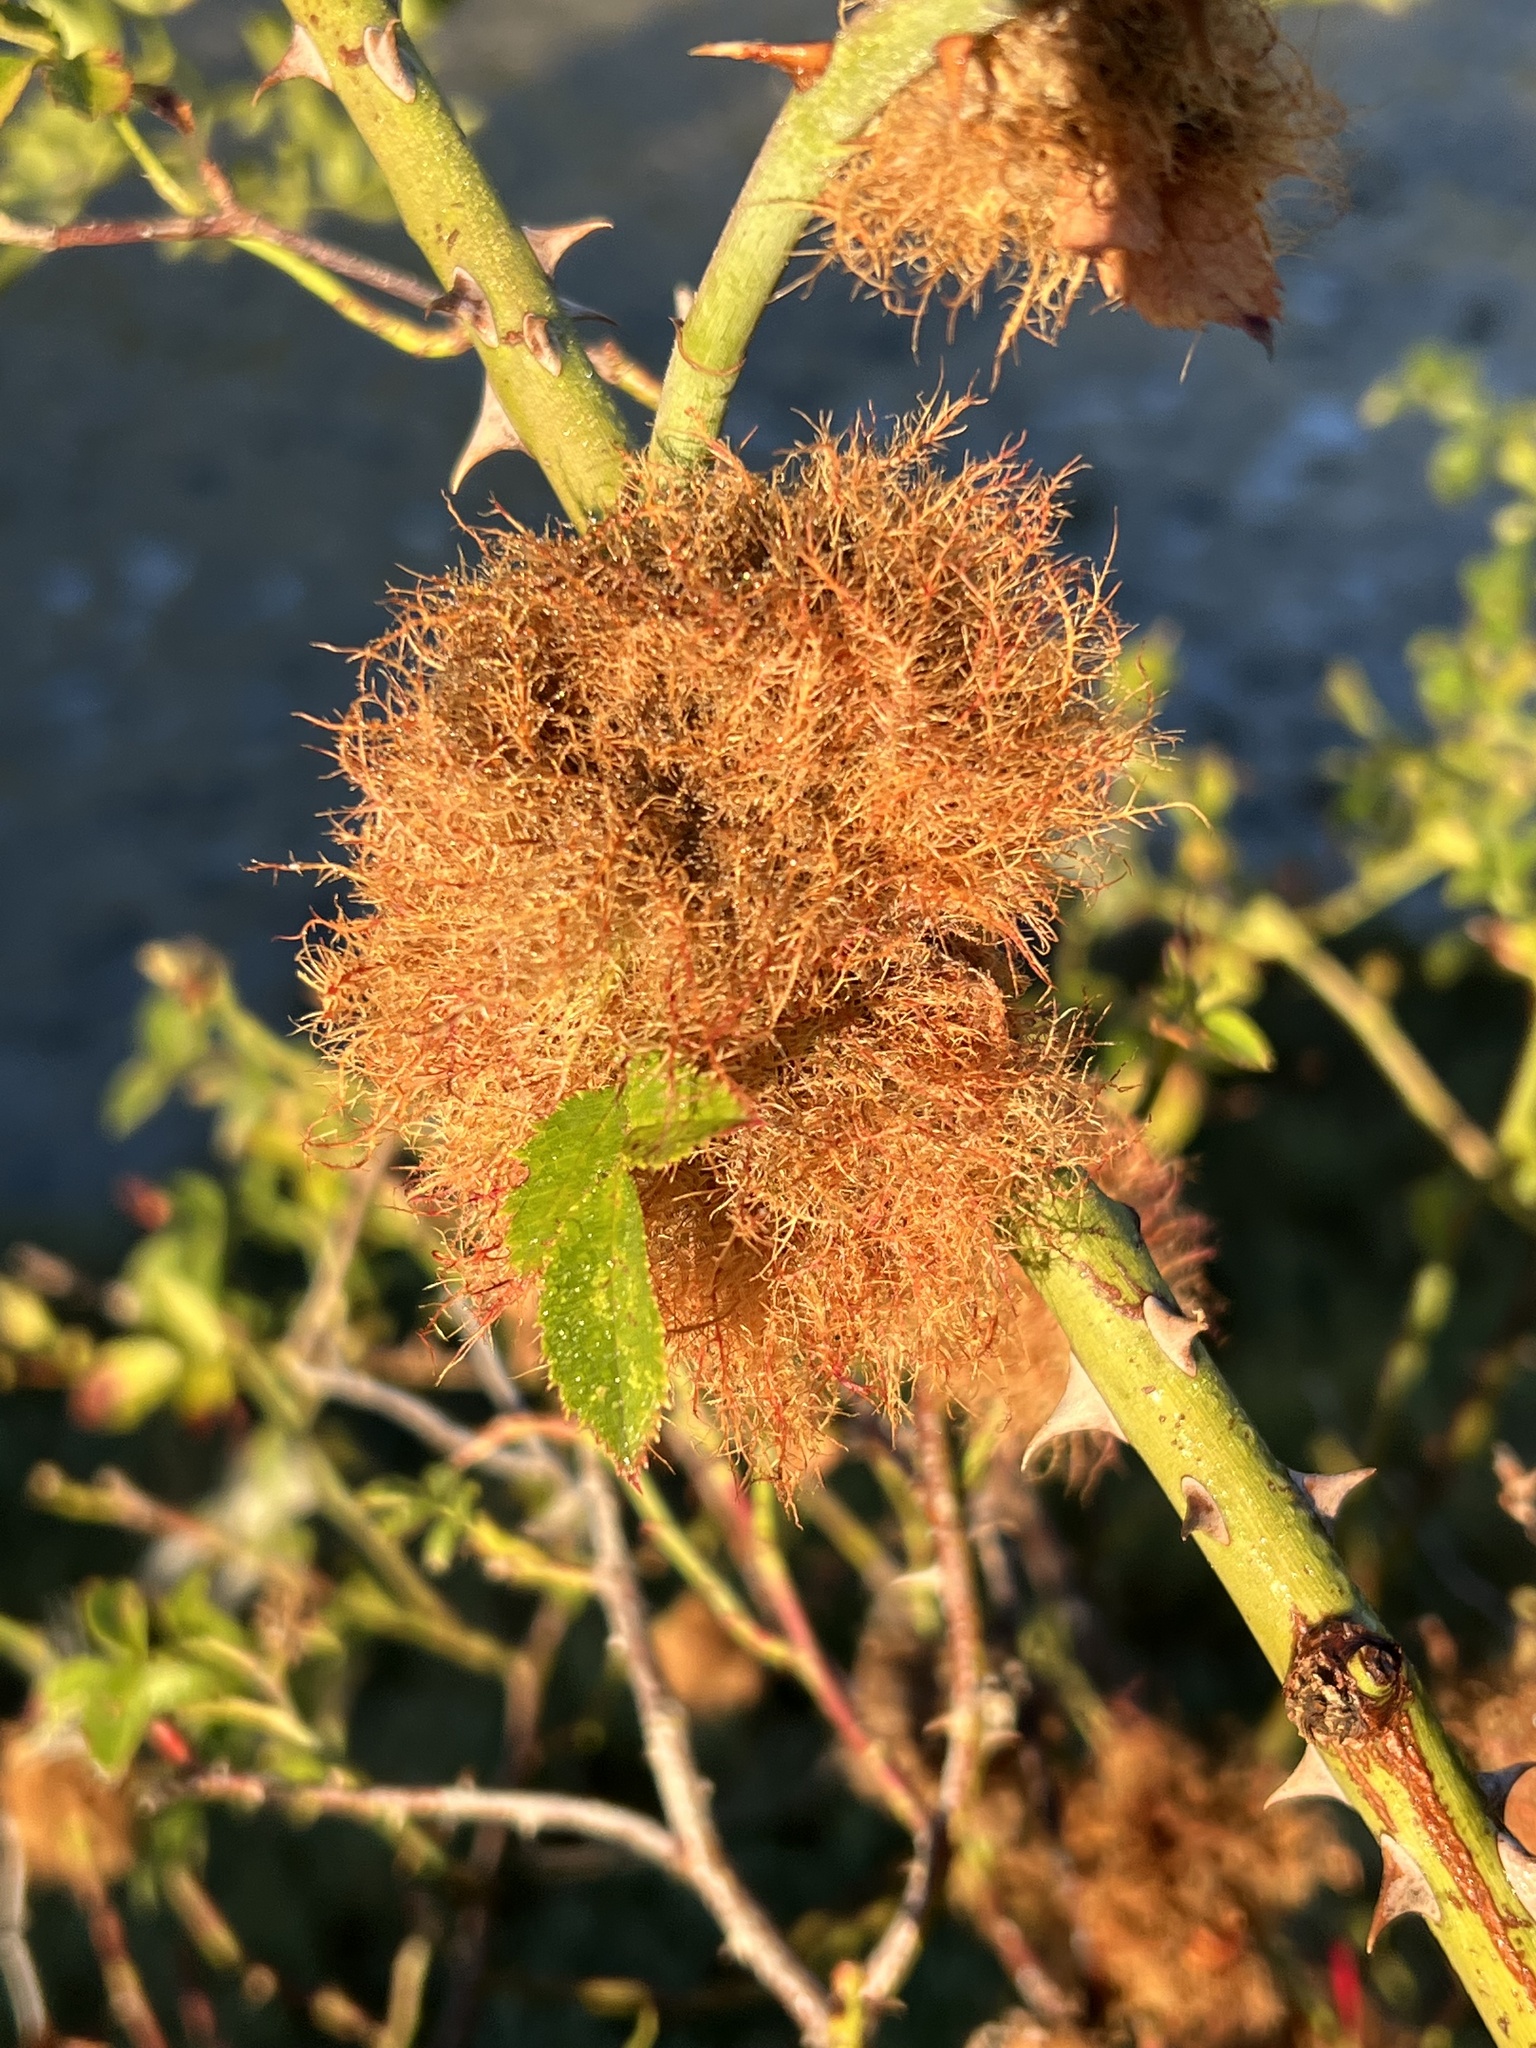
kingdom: Animalia
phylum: Arthropoda
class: Insecta
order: Hymenoptera
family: Cynipidae
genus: Diplolepis
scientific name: Diplolepis rosae
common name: Bedeguar gall
